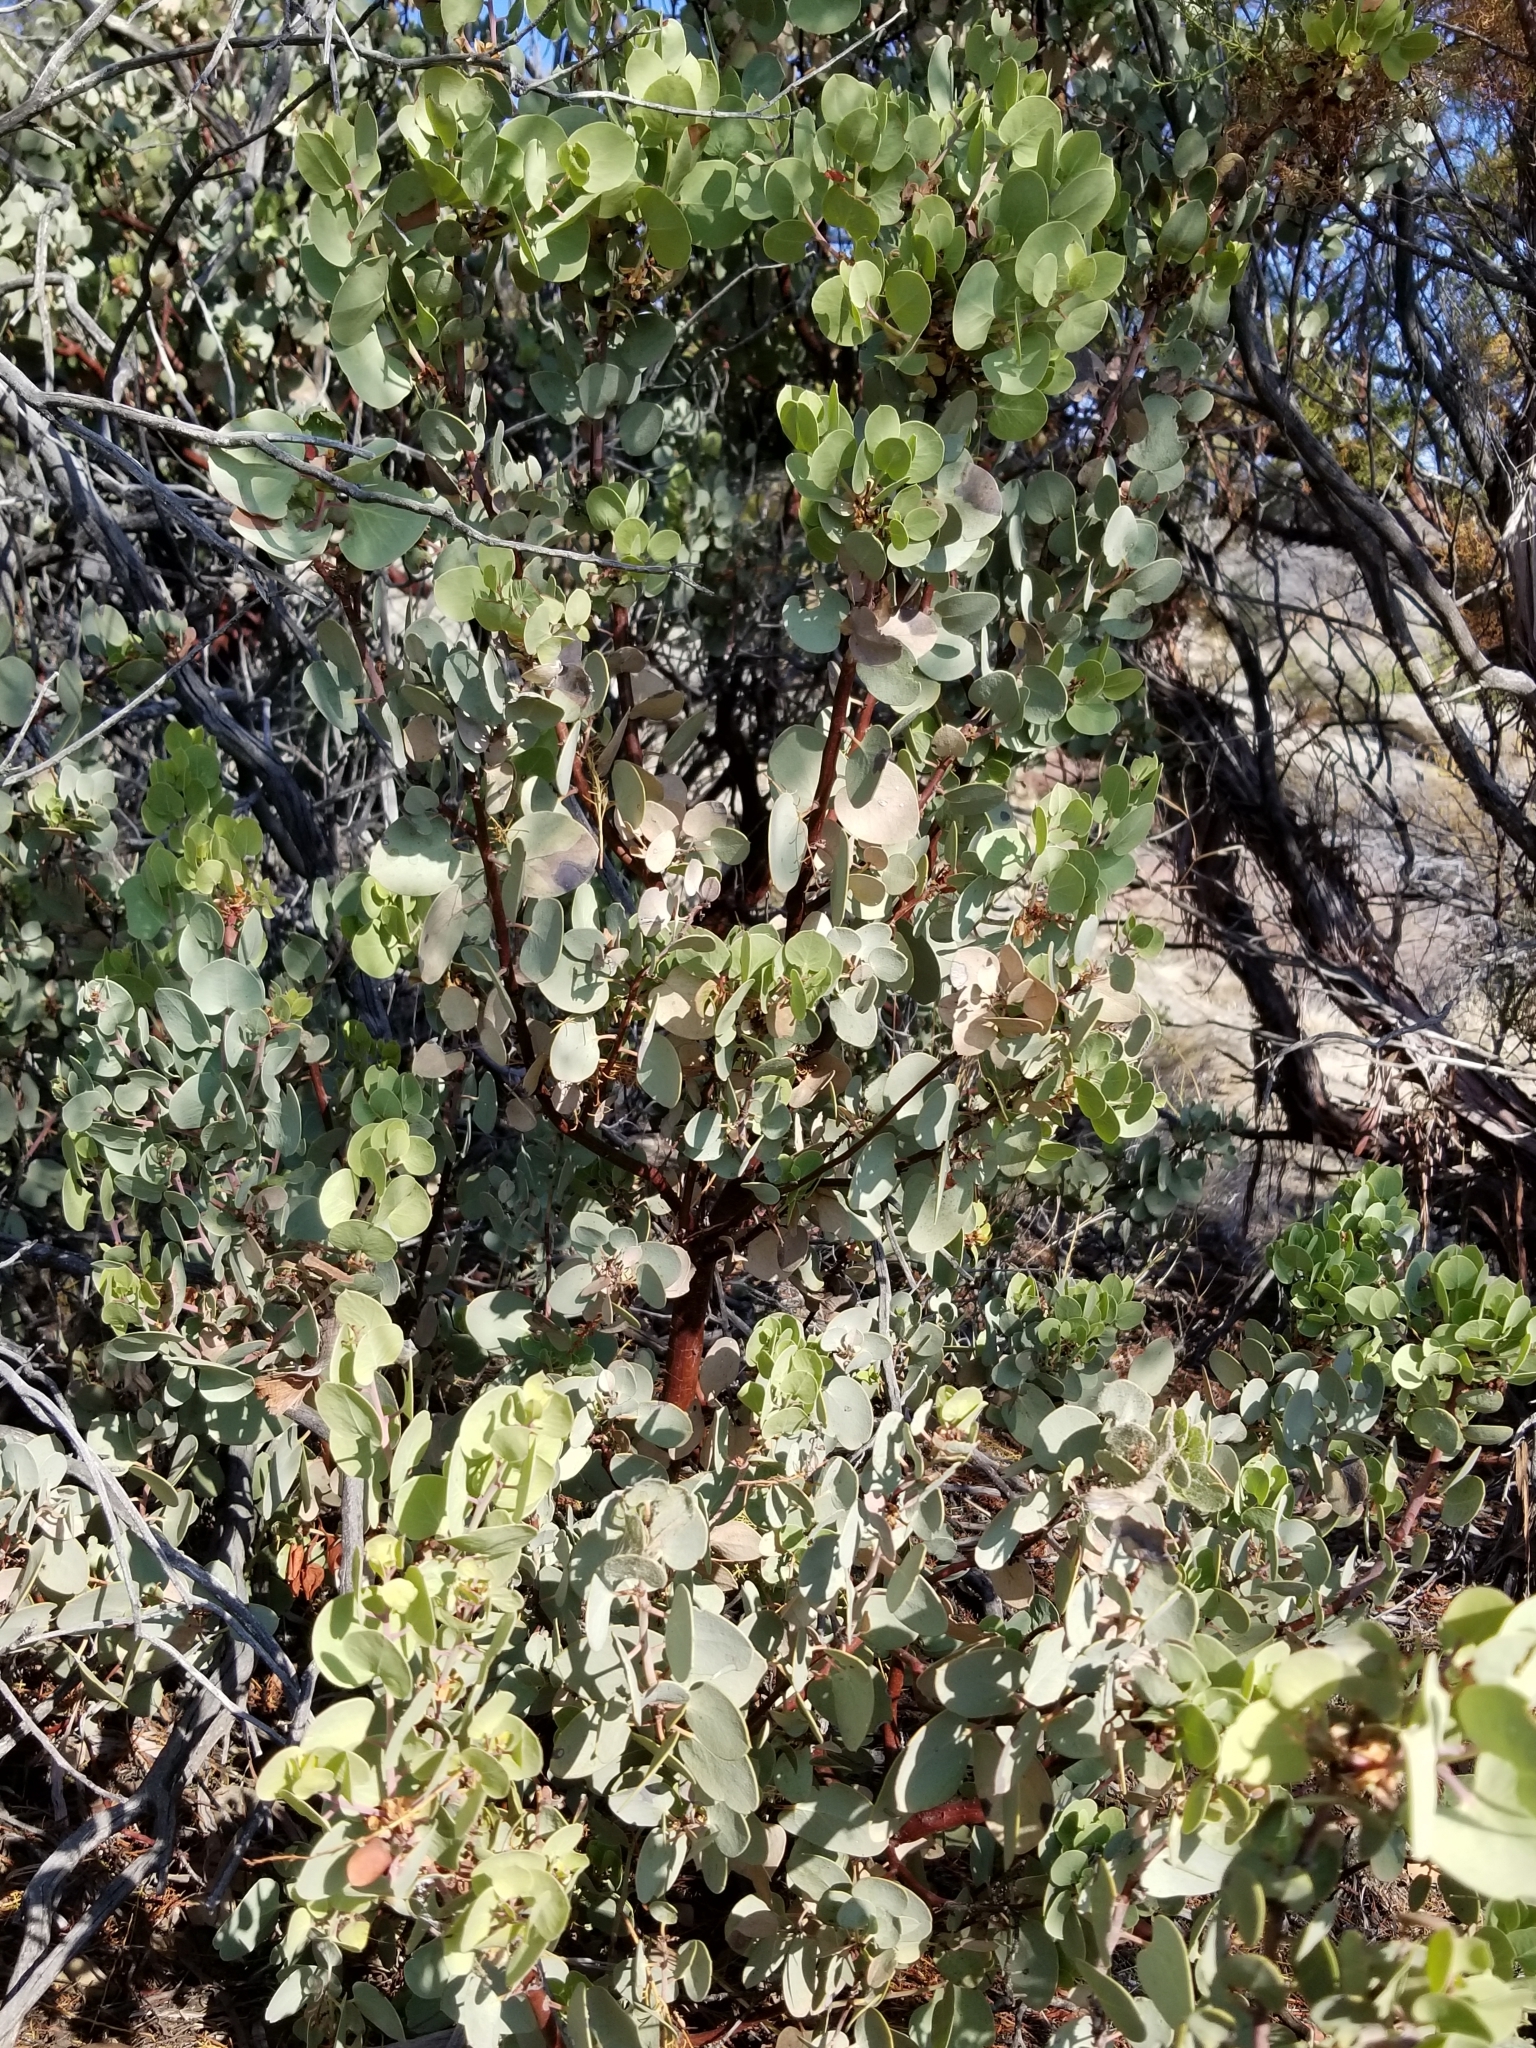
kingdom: Plantae
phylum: Tracheophyta
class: Magnoliopsida
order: Ericales
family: Ericaceae
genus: Arctostaphylos
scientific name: Arctostaphylos glauca
